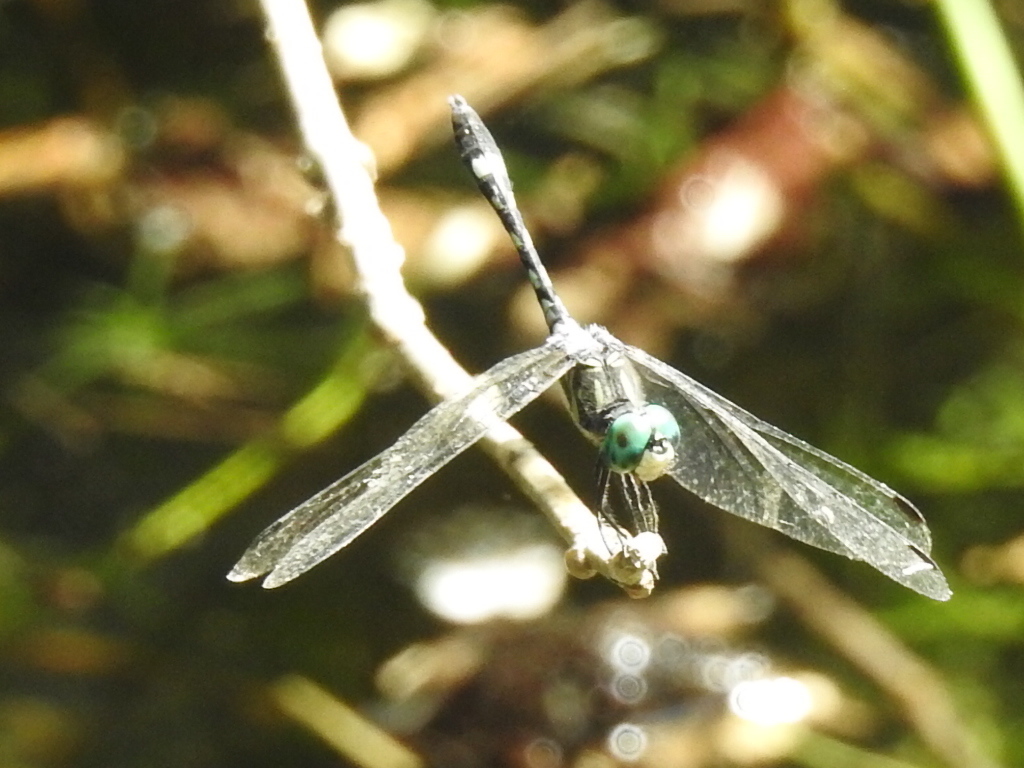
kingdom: Animalia
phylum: Arthropoda
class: Insecta
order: Odonata
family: Libellulidae
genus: Micrathyria
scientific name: Micrathyria hagenii
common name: Thornbush dasher
